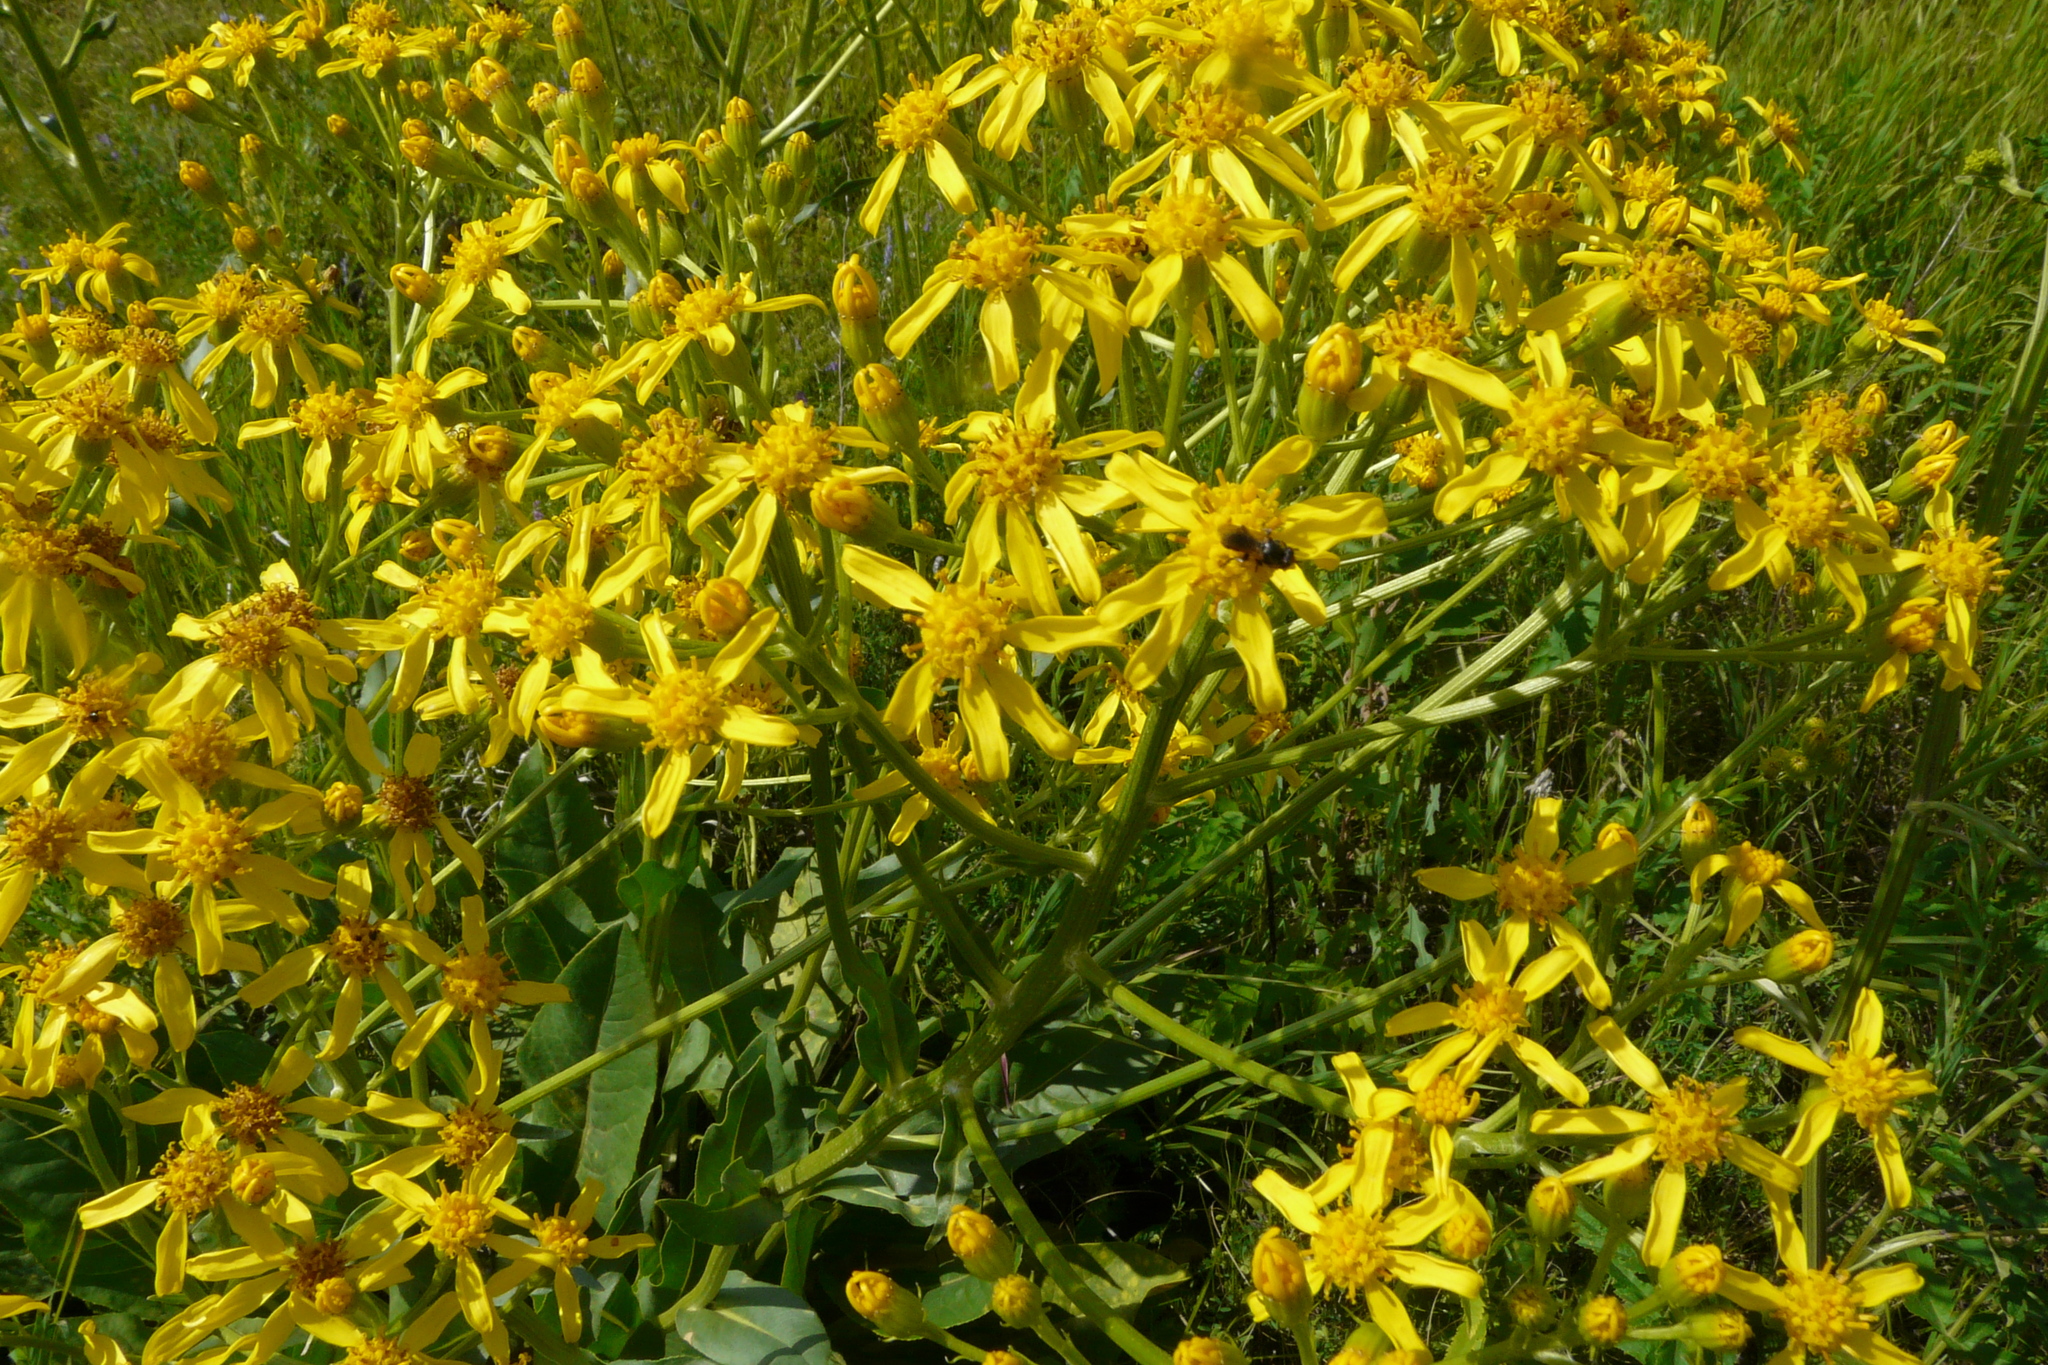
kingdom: Plantae
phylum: Tracheophyta
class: Magnoliopsida
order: Asterales
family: Asteraceae
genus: Senecio
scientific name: Senecio doria
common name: Golden ragwort
